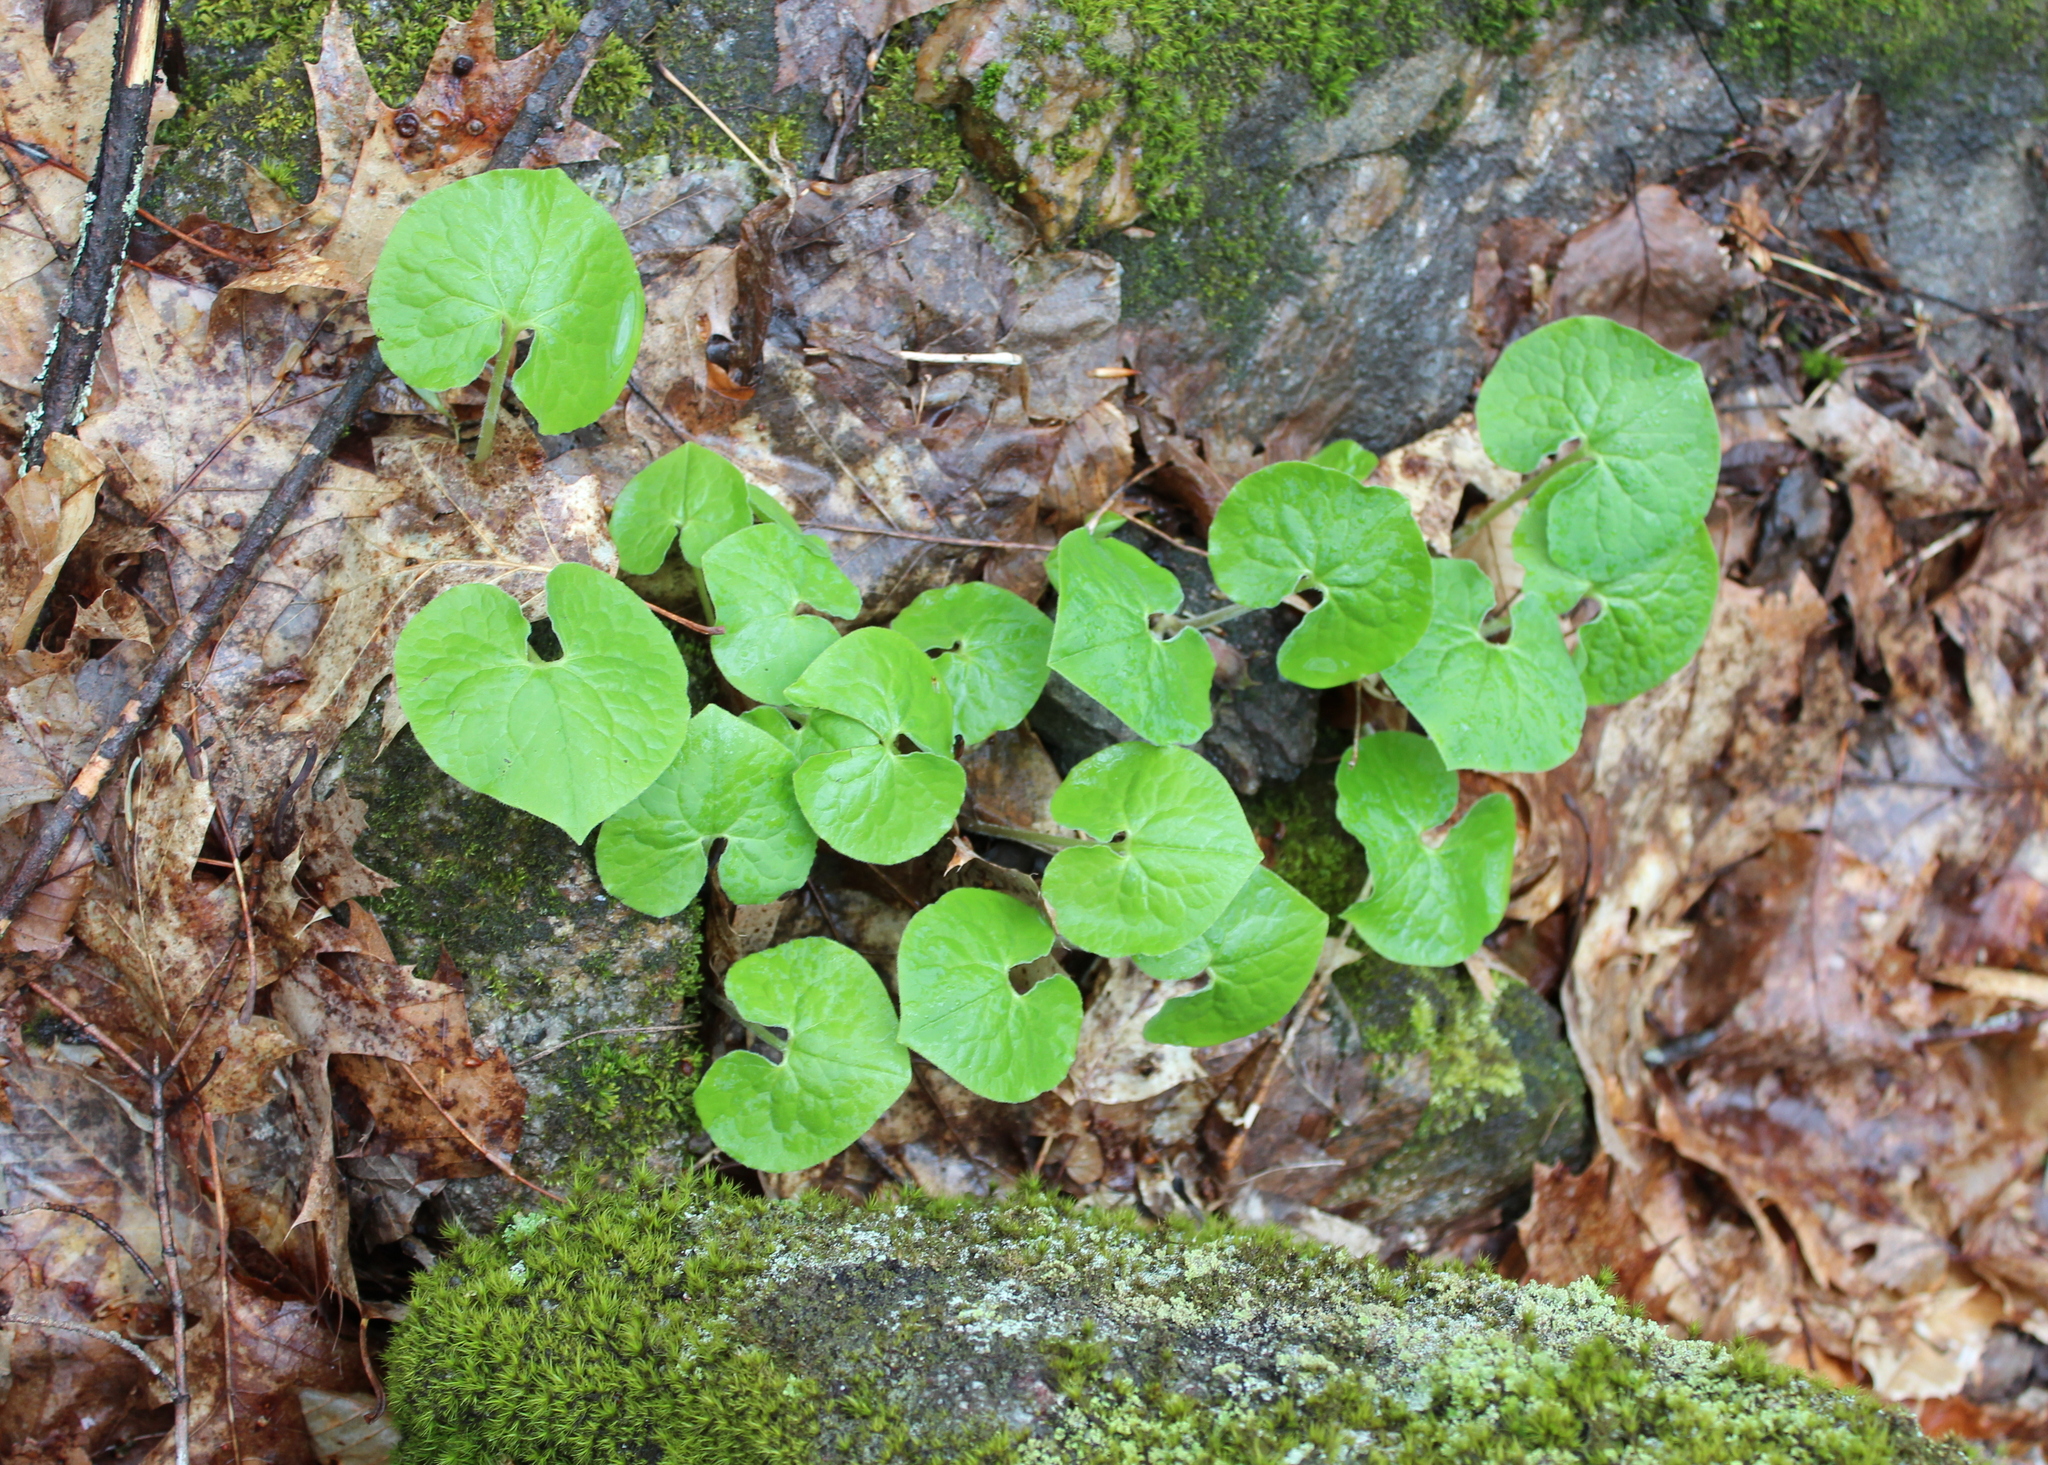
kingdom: Plantae
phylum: Tracheophyta
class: Magnoliopsida
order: Piperales
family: Aristolochiaceae
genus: Asarum
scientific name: Asarum canadense
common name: Wild ginger
